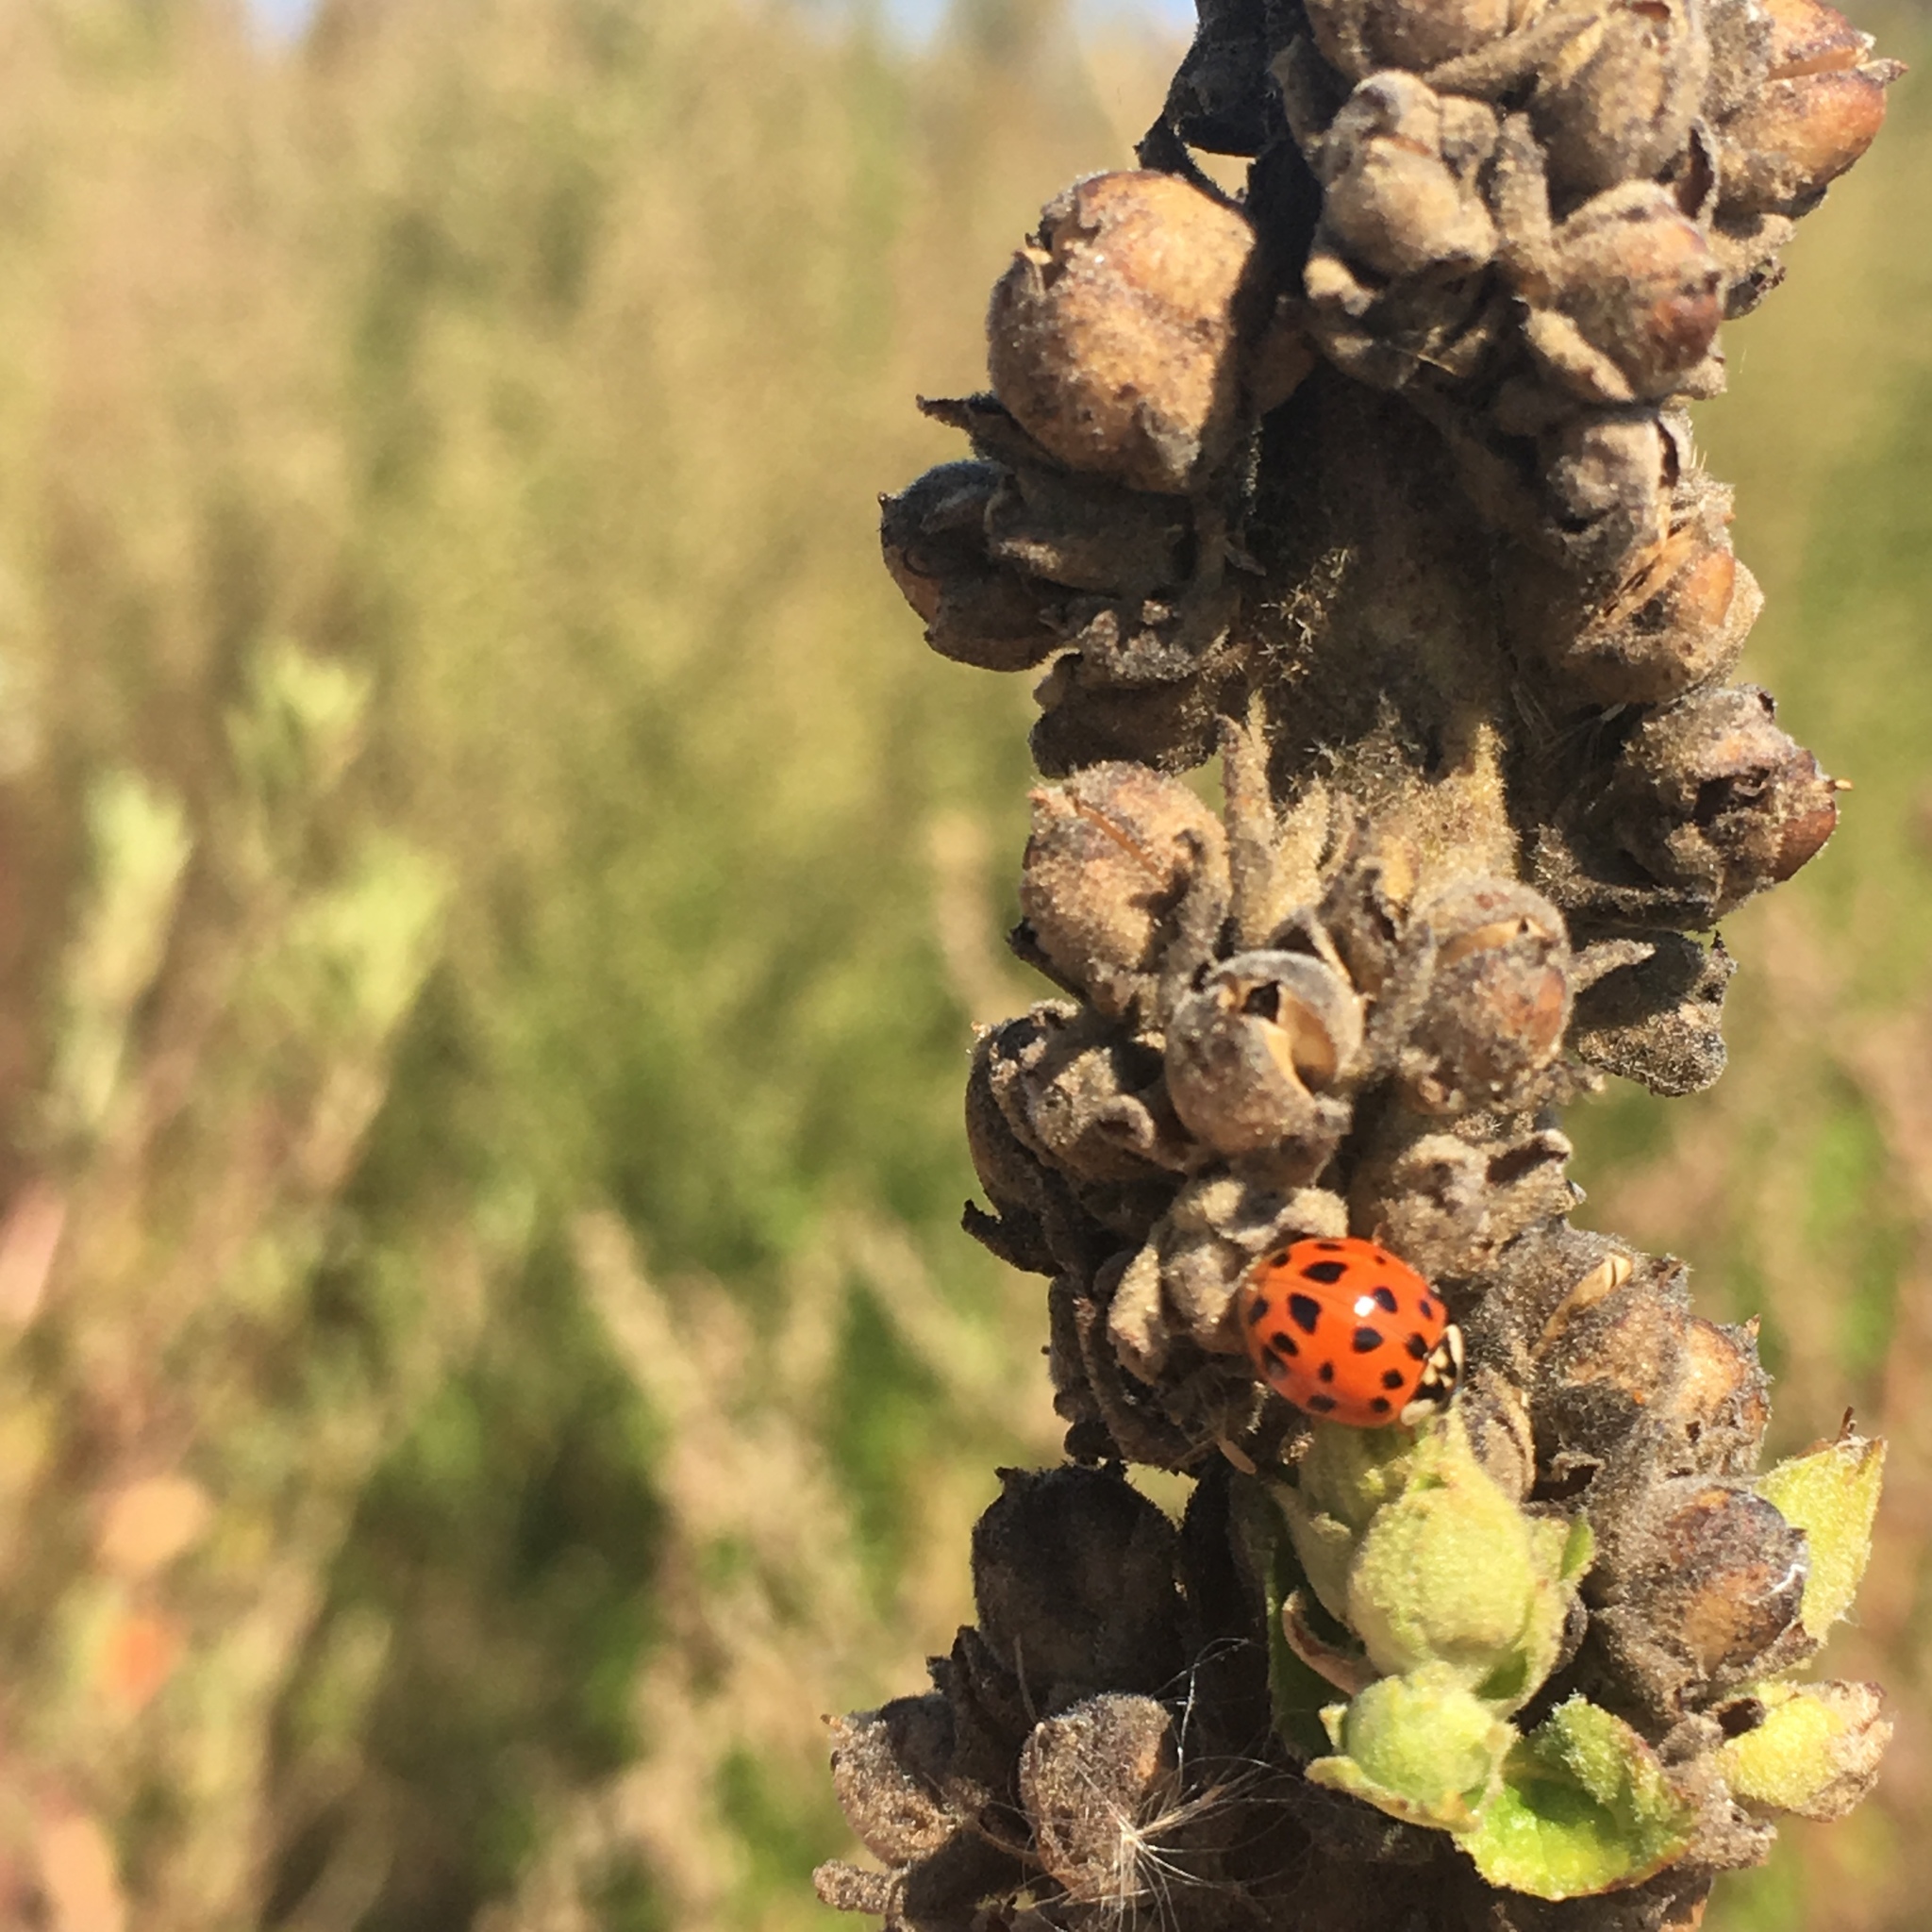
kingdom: Animalia
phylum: Arthropoda
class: Insecta
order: Coleoptera
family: Coccinellidae
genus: Harmonia
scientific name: Harmonia axyridis
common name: Harlequin ladybird
